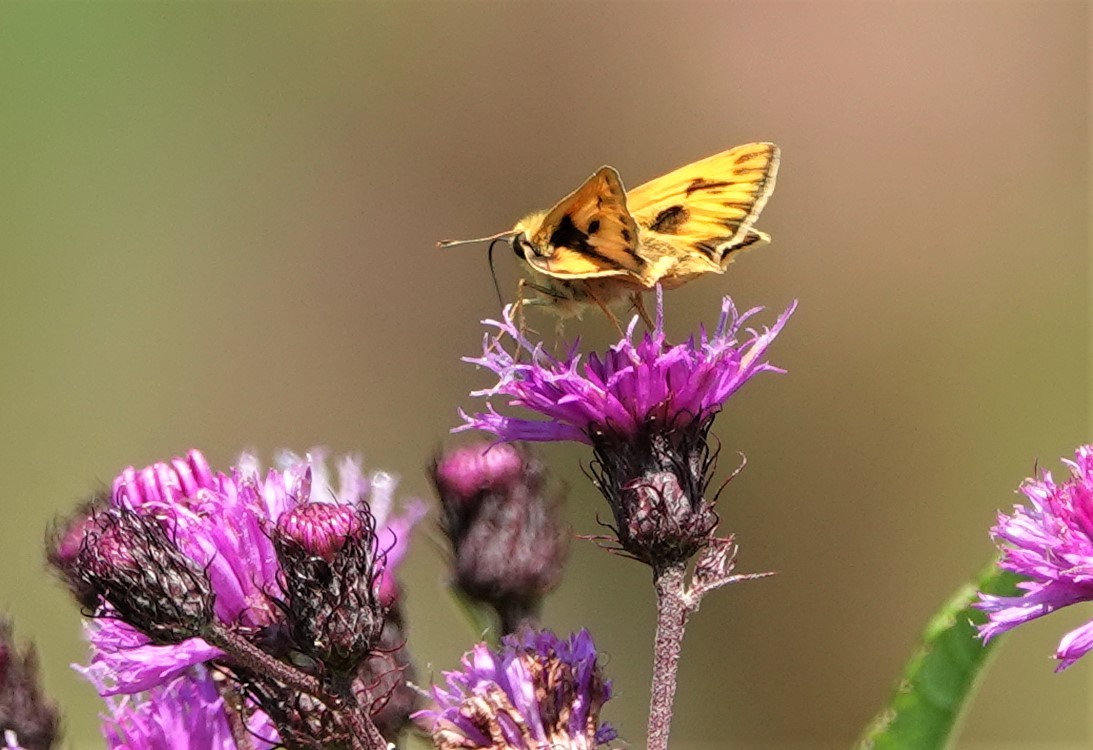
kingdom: Animalia
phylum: Arthropoda
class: Insecta
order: Lepidoptera
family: Hesperiidae
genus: Hylephila
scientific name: Hylephila phyleus
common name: Fiery skipper
